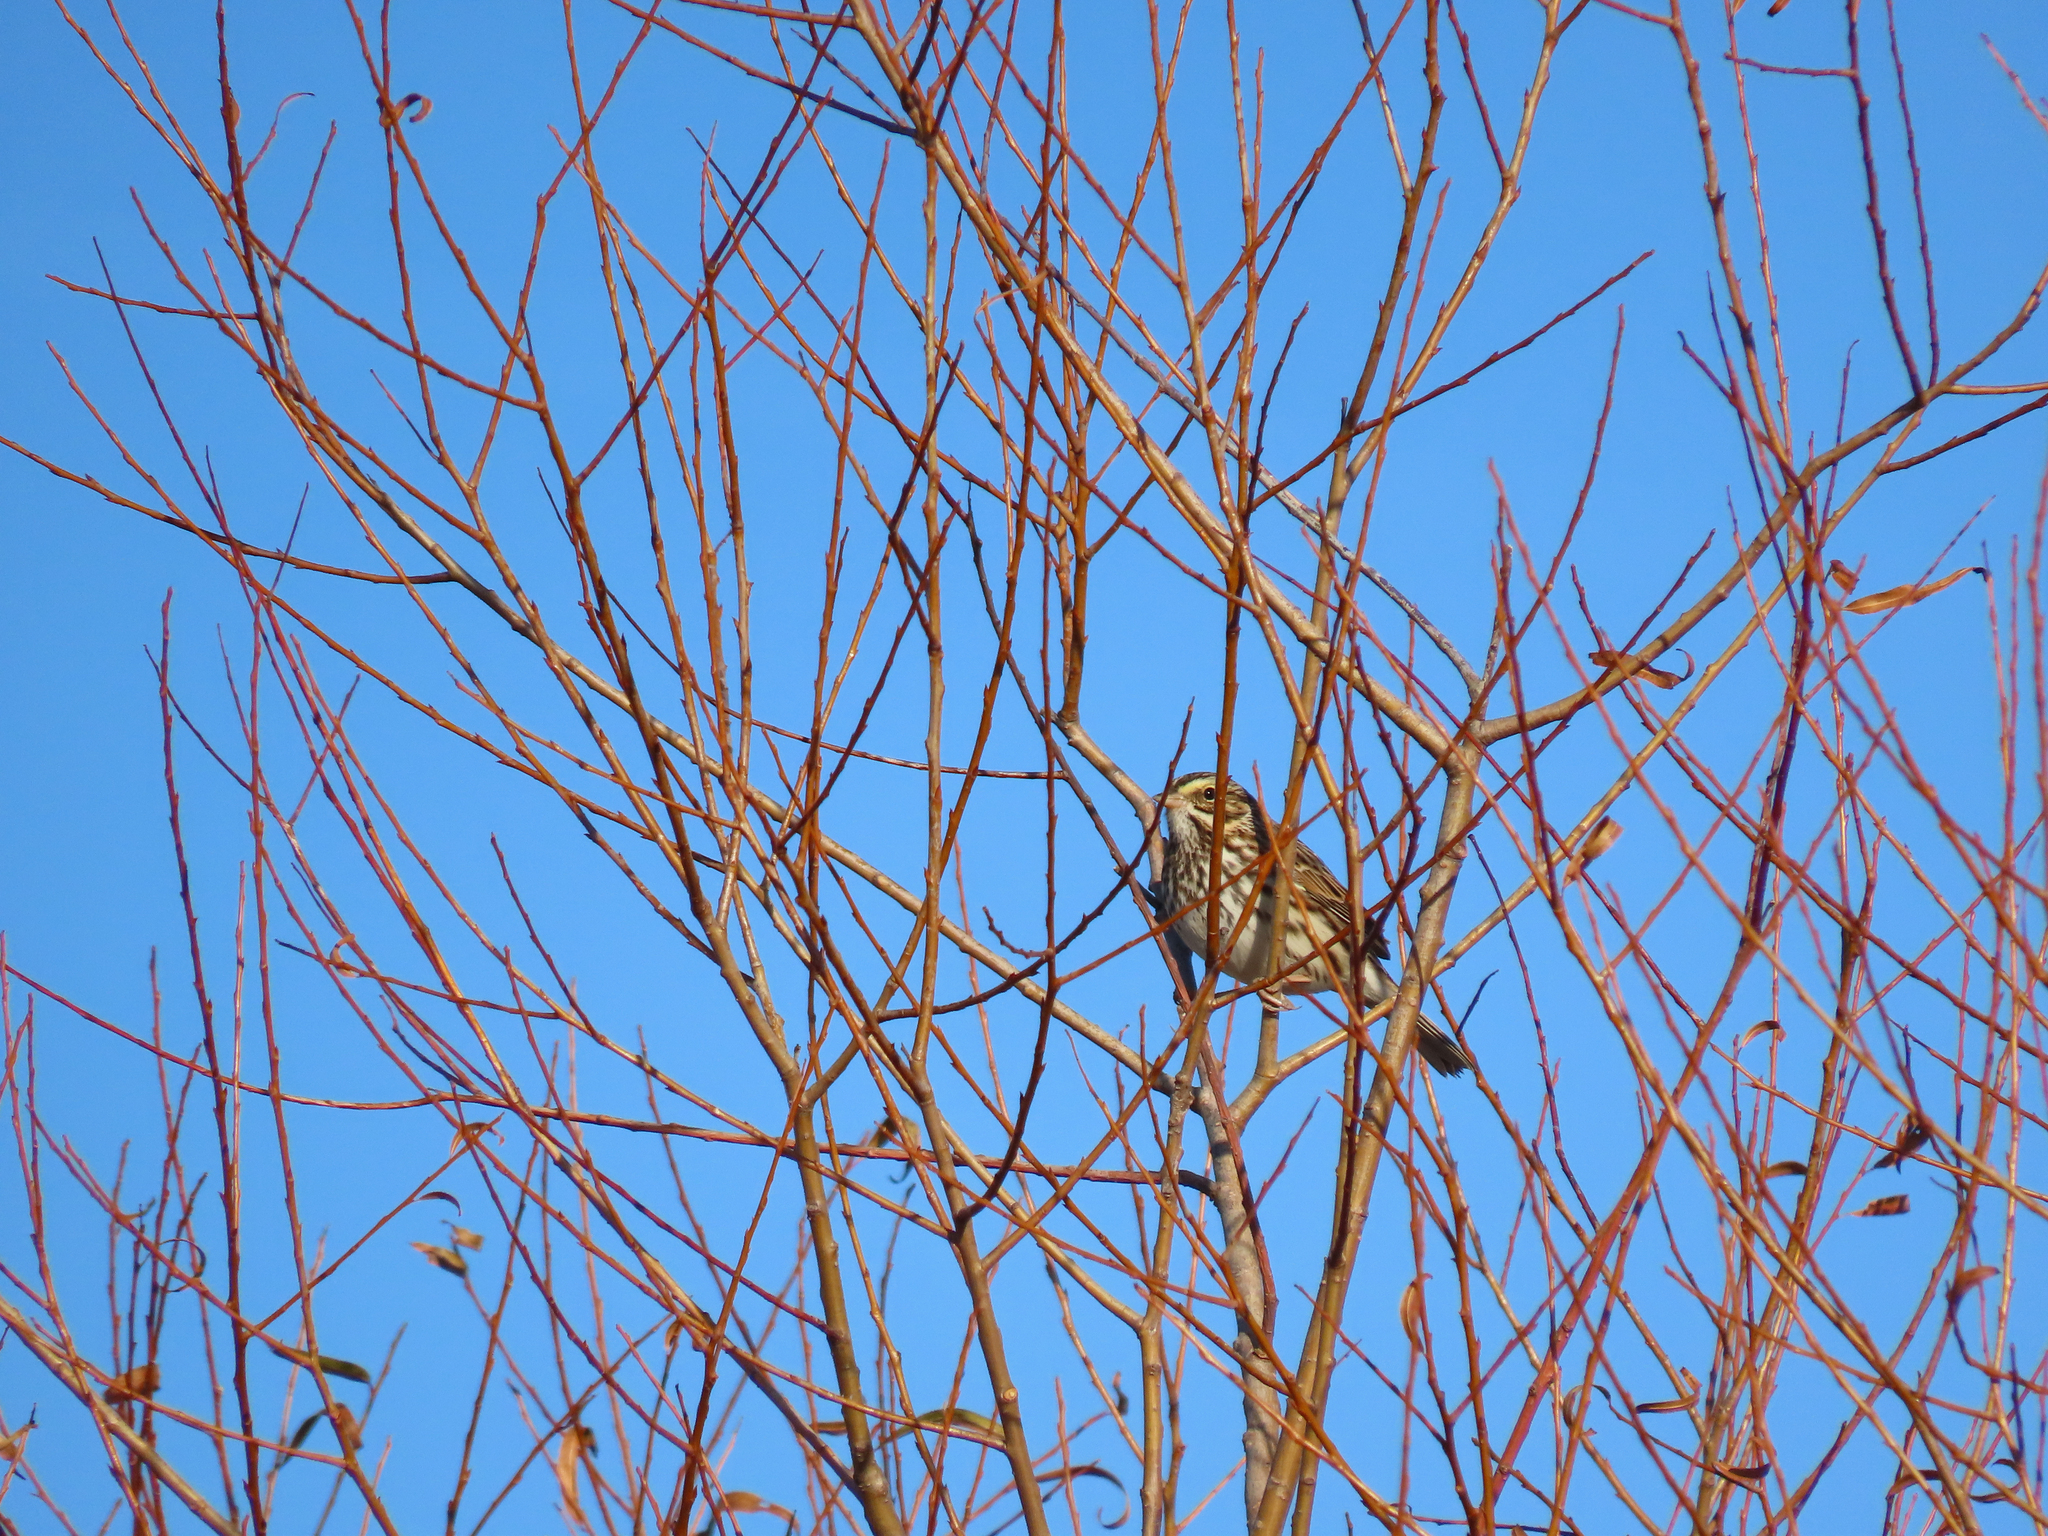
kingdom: Animalia
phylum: Chordata
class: Aves
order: Passeriformes
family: Passerellidae
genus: Passerculus
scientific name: Passerculus sandwichensis
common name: Savannah sparrow
